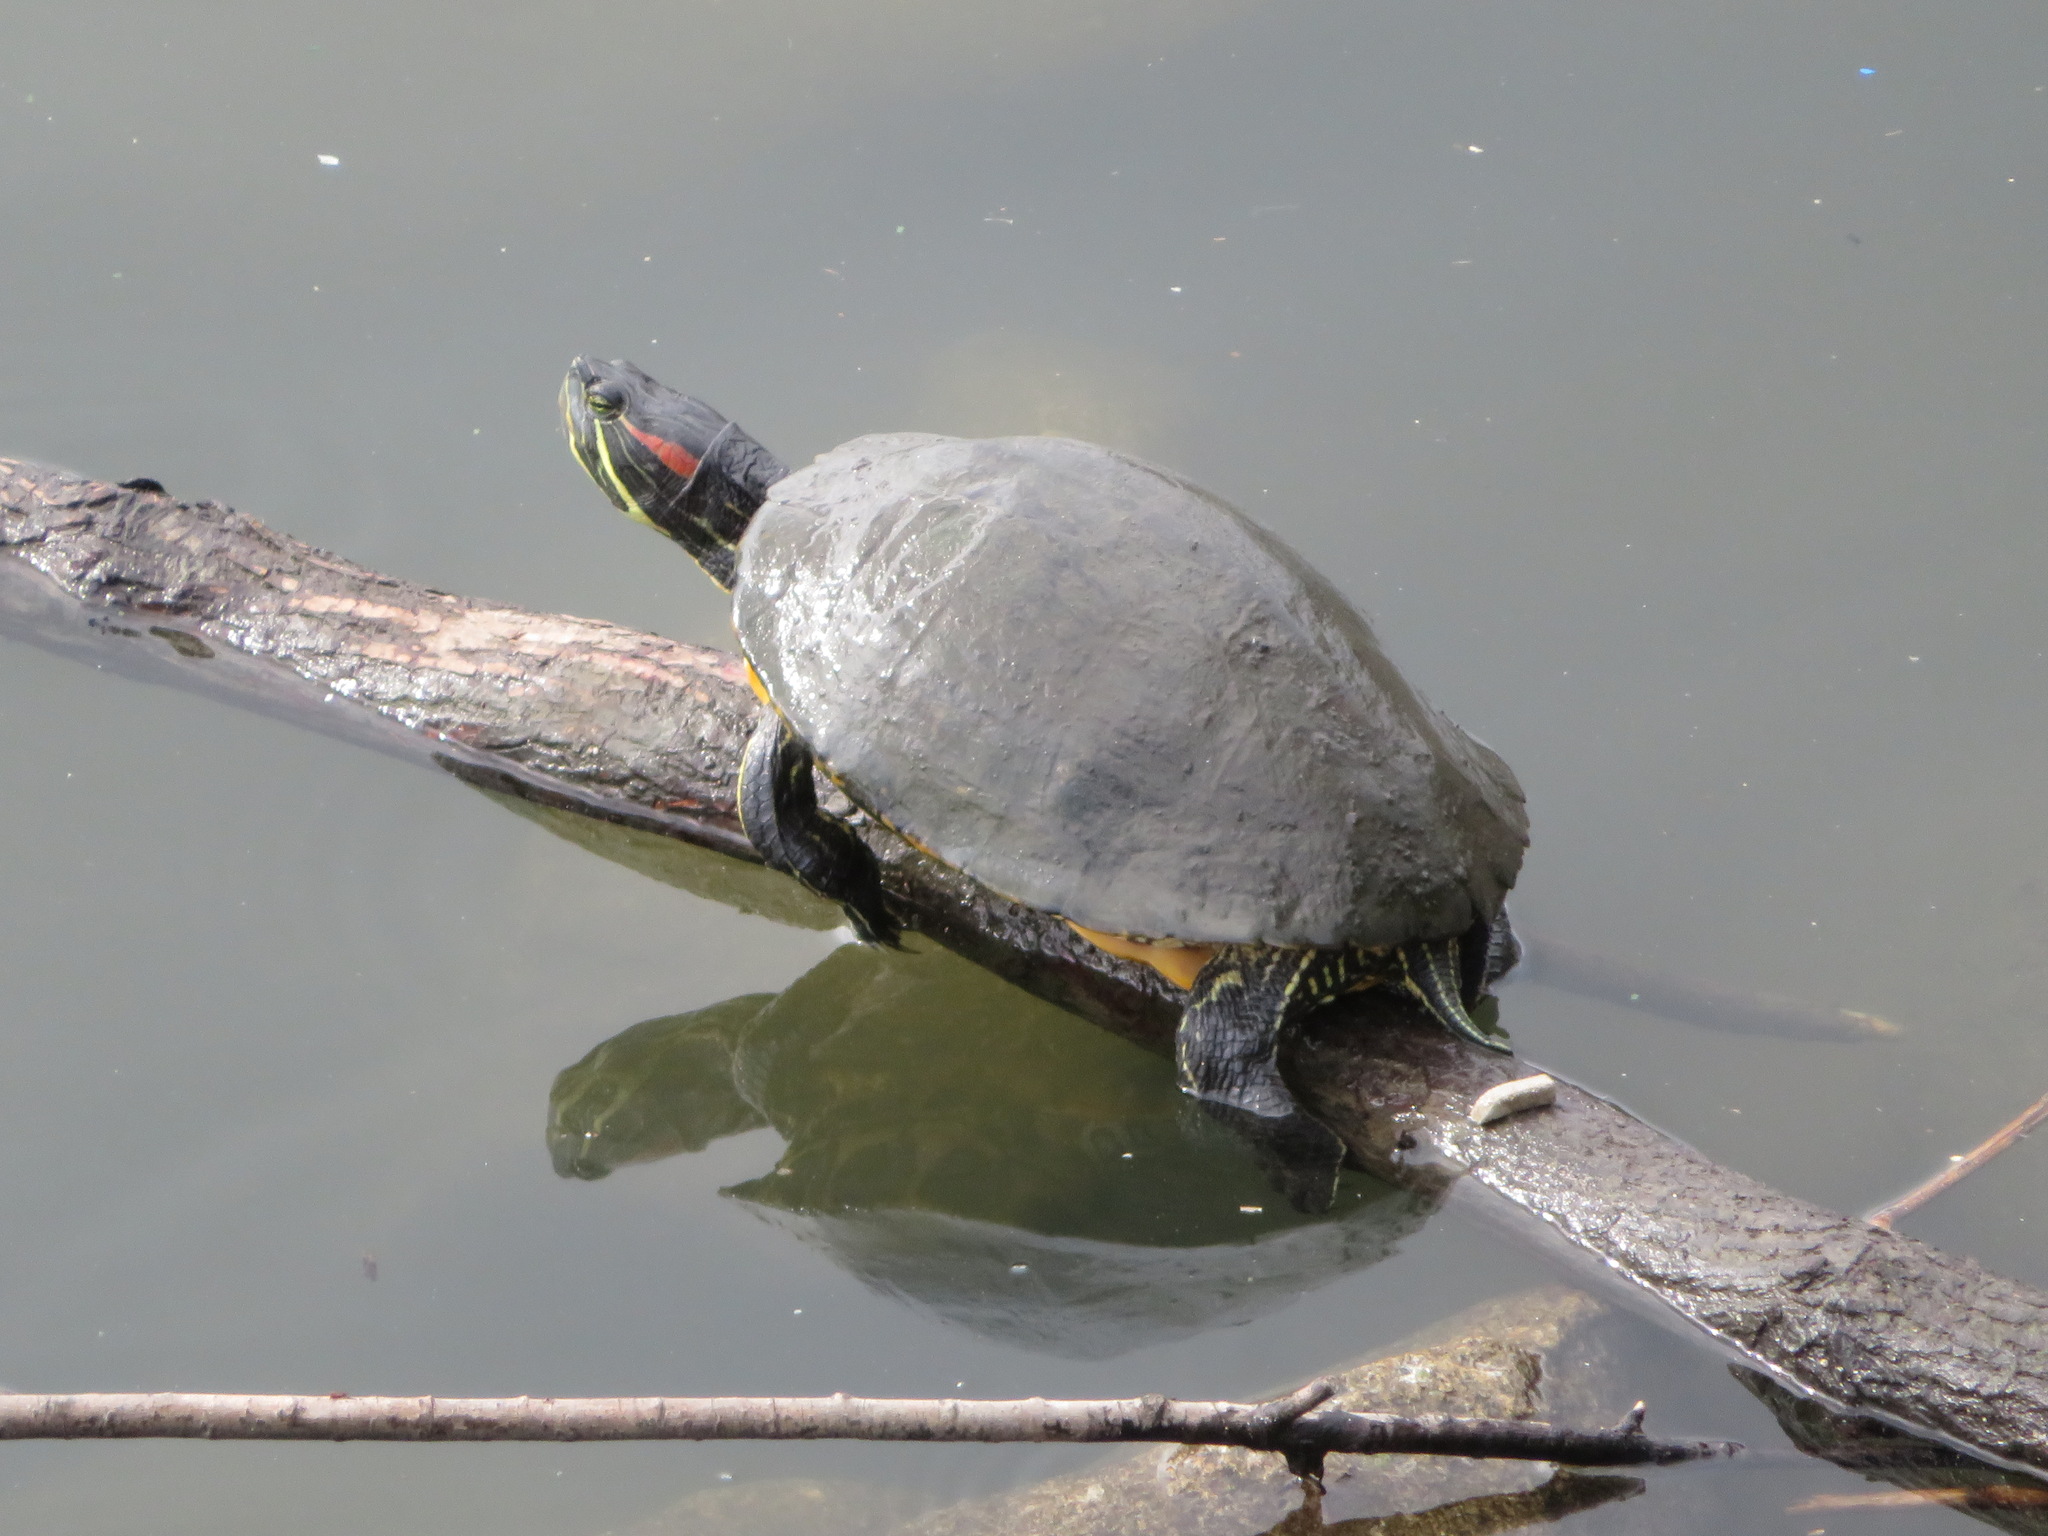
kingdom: Animalia
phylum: Chordata
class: Testudines
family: Emydidae
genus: Trachemys
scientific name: Trachemys scripta
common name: Slider
